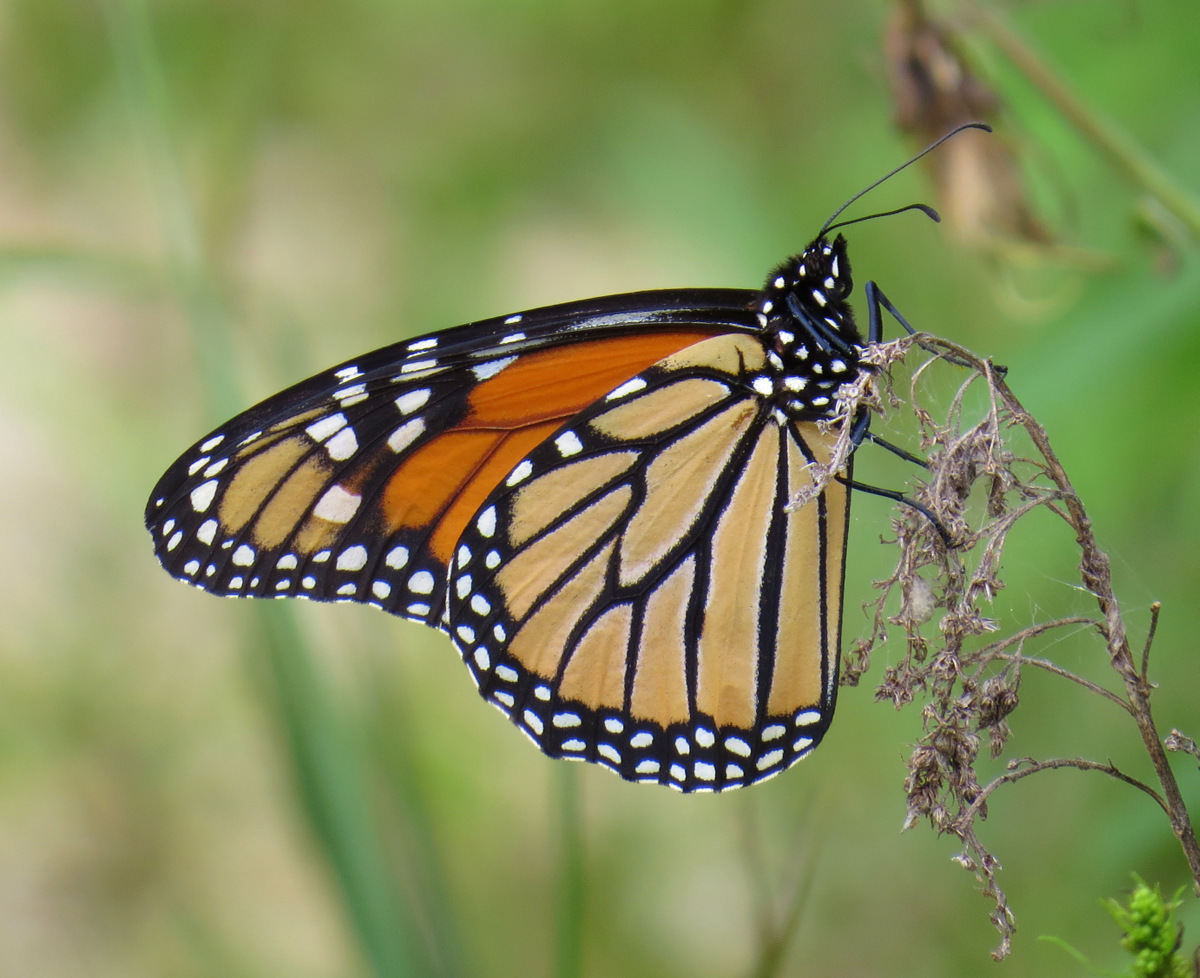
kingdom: Animalia
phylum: Arthropoda
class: Insecta
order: Lepidoptera
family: Nymphalidae
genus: Danaus
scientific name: Danaus plexippus
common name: Monarch
